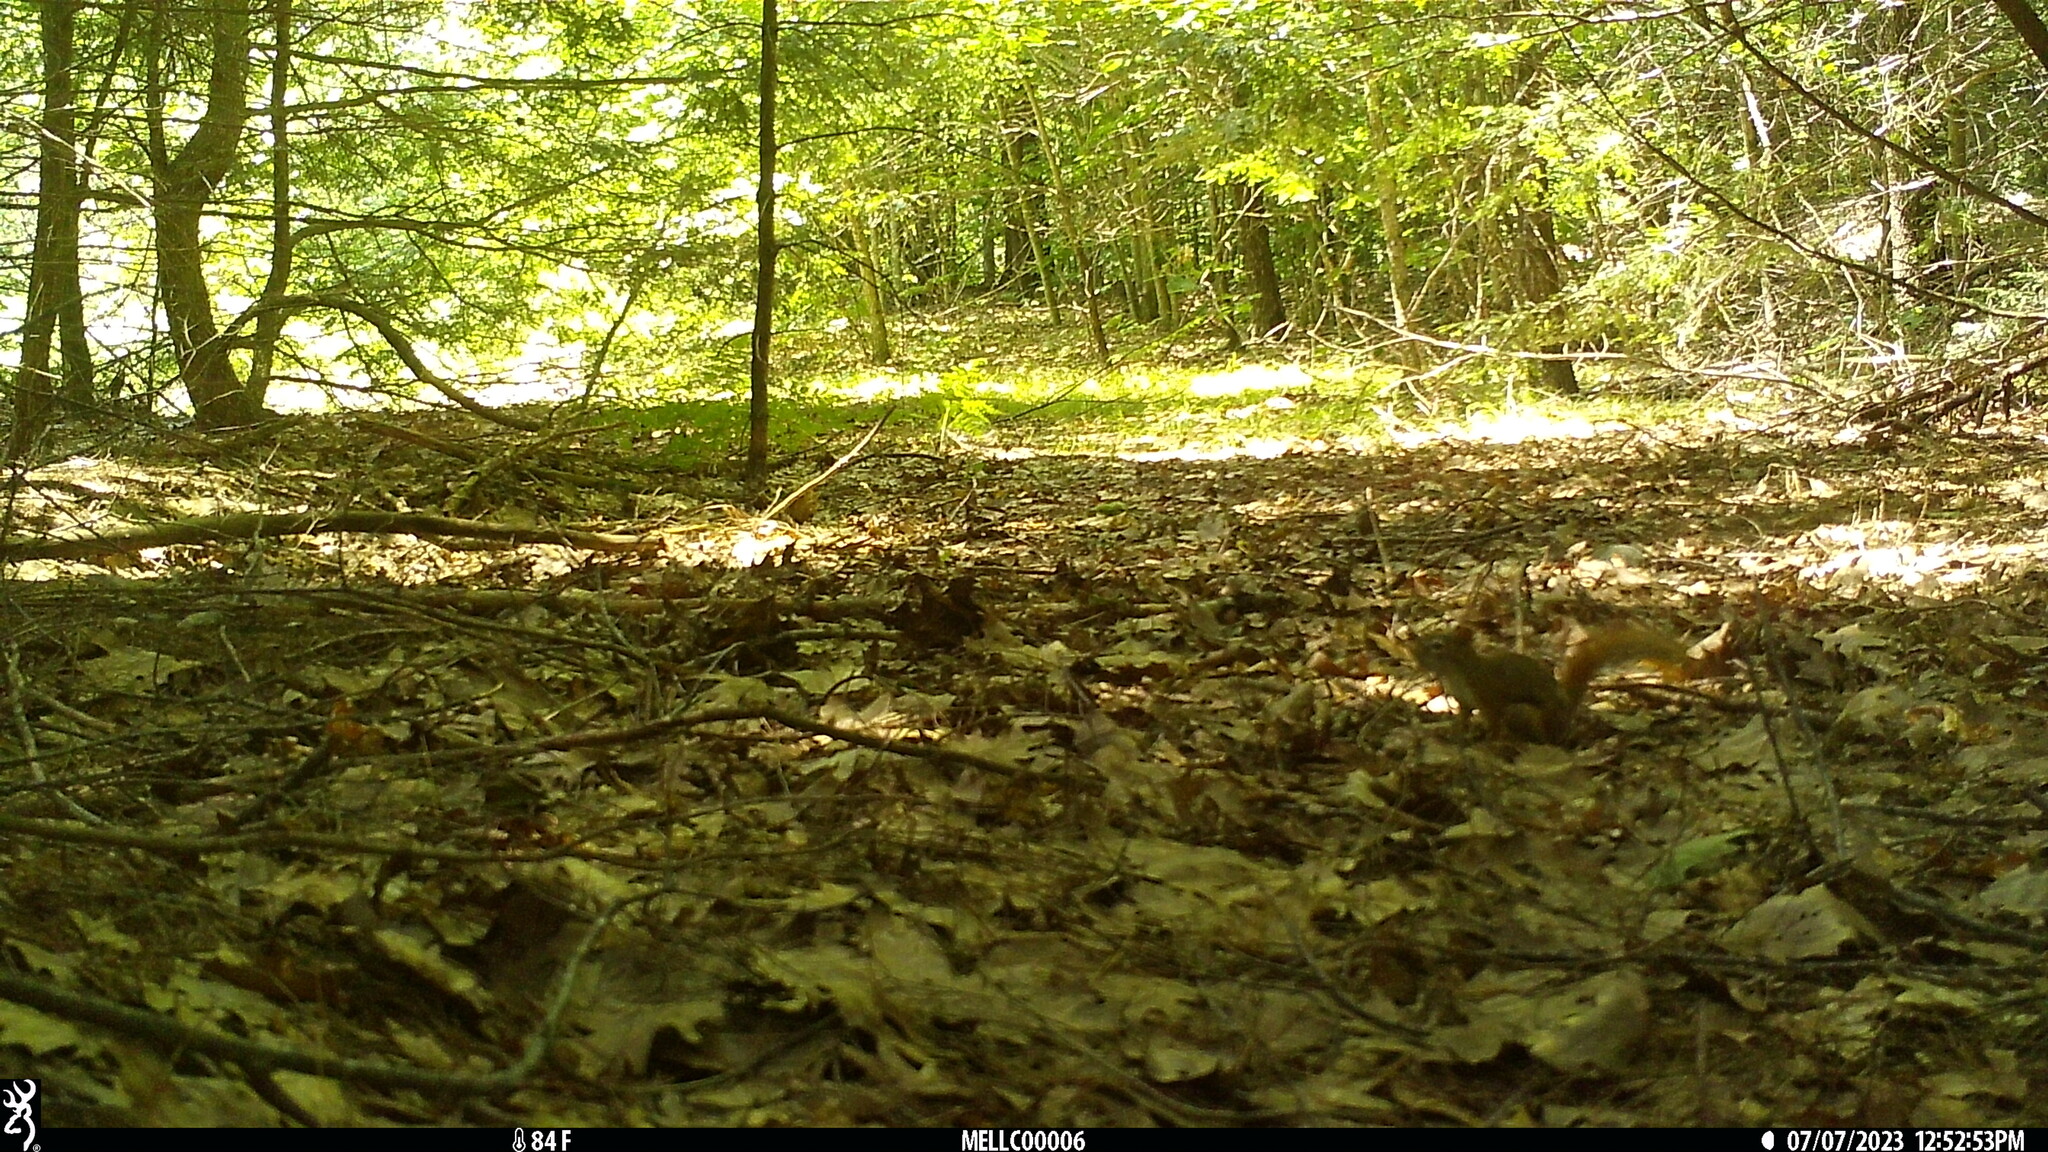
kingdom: Animalia
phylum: Chordata
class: Mammalia
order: Rodentia
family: Sciuridae
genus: Tamiasciurus
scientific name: Tamiasciurus hudsonicus
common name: Red squirrel
